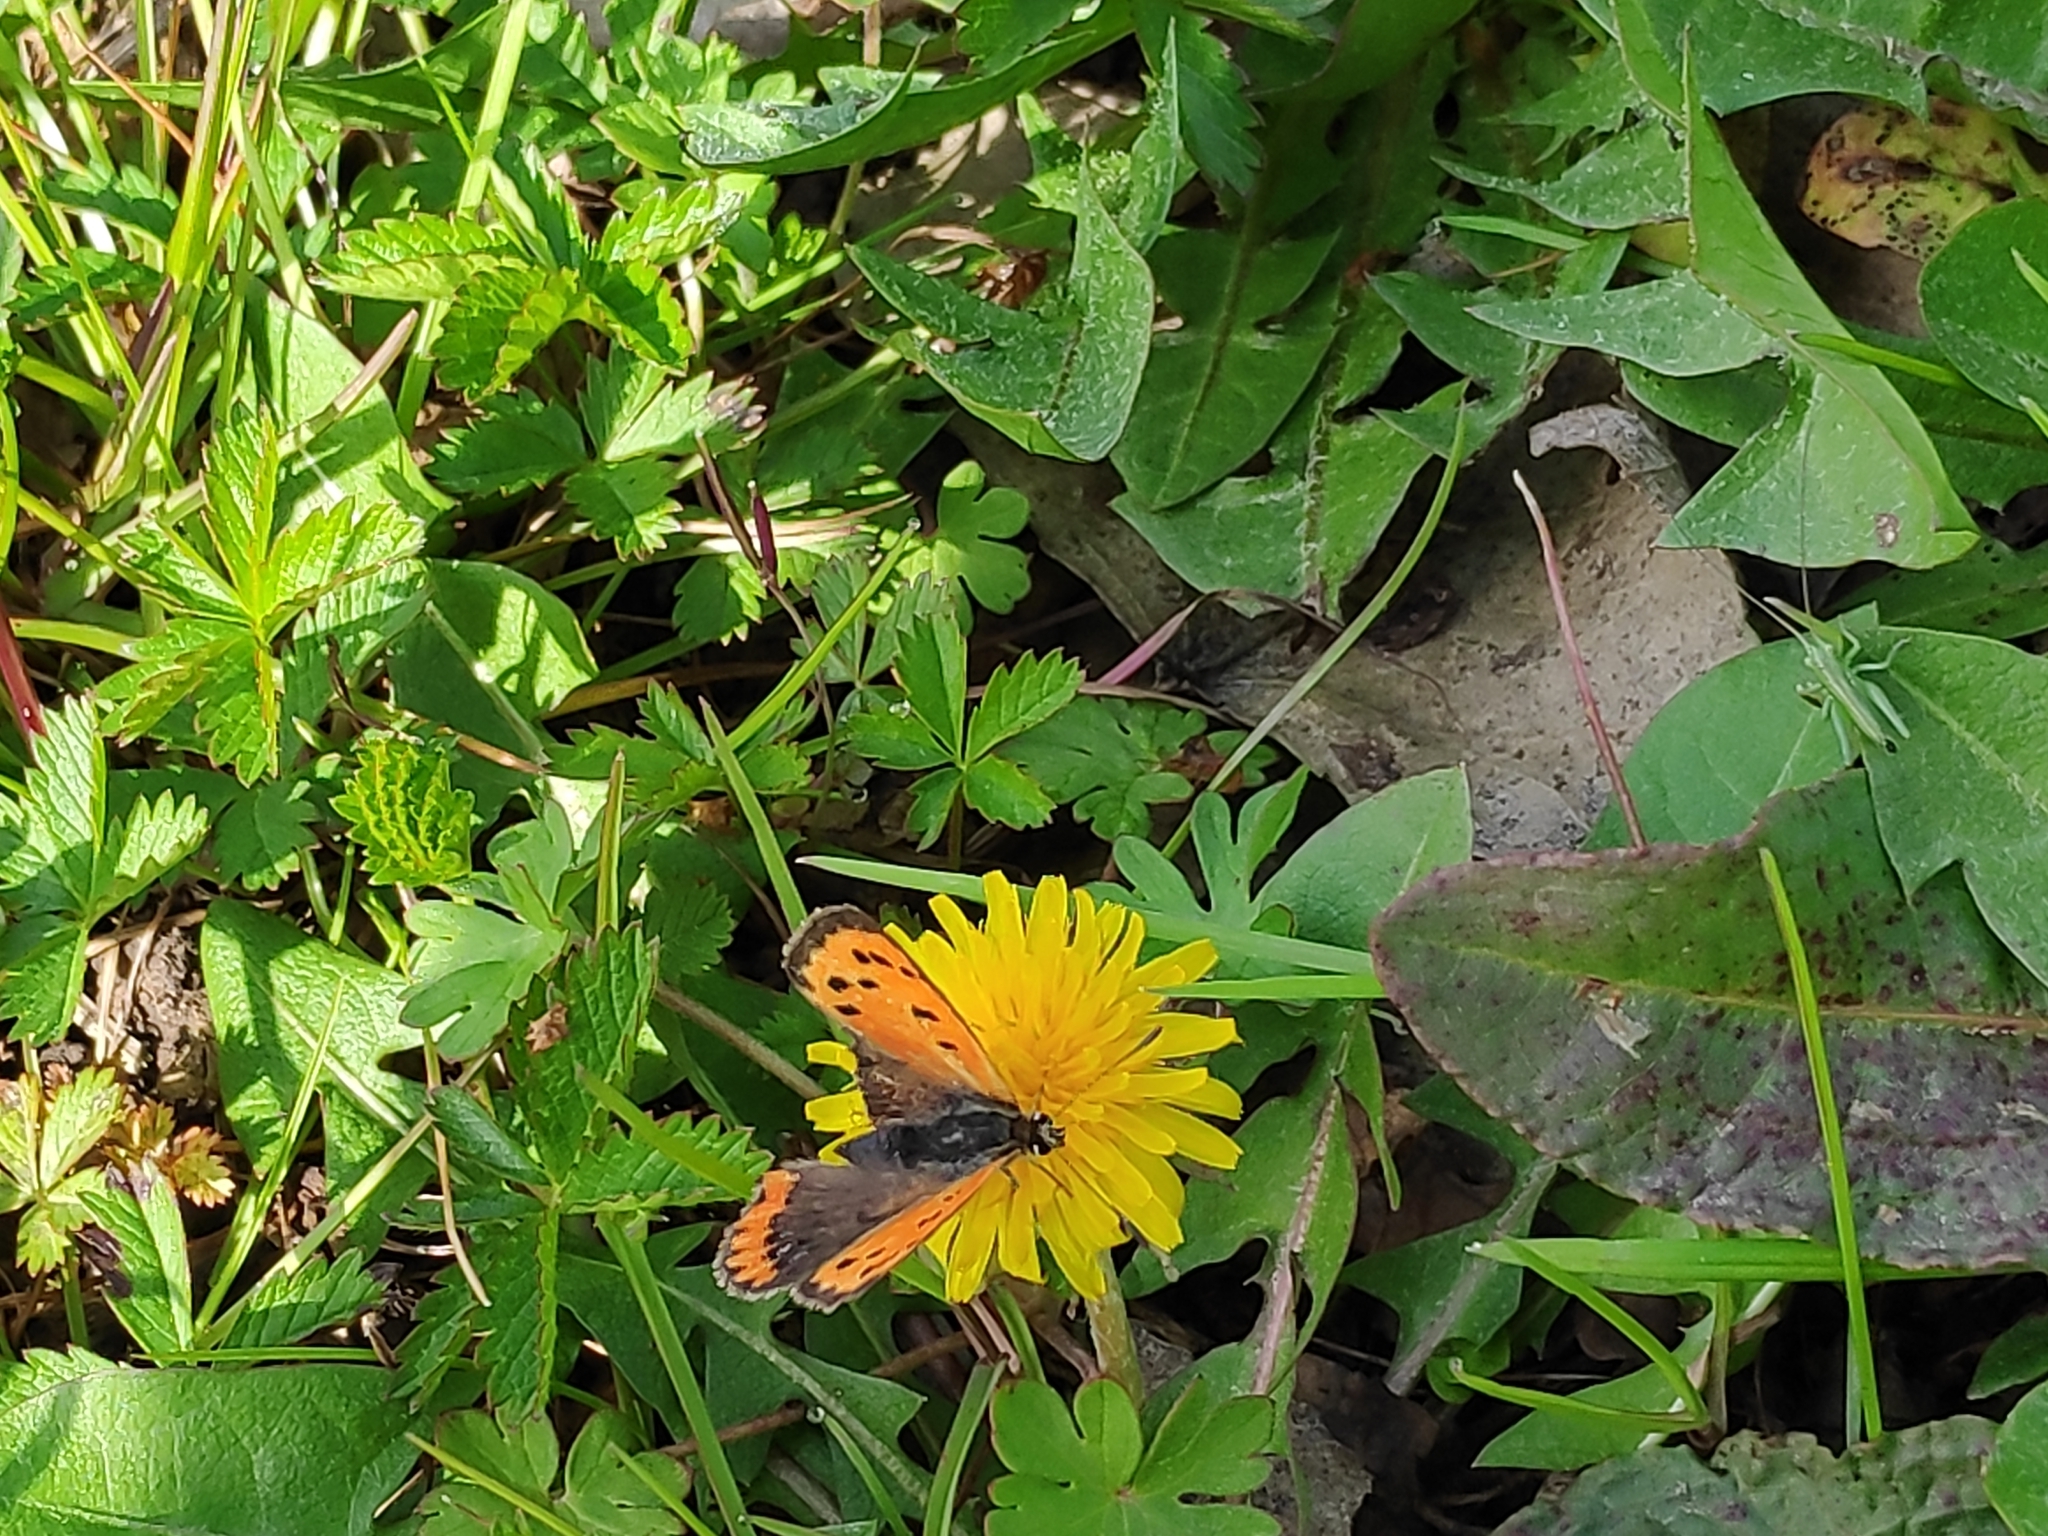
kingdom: Animalia
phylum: Arthropoda
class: Insecta
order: Lepidoptera
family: Lycaenidae
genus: Lycaena
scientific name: Lycaena phlaeas
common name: Small copper
